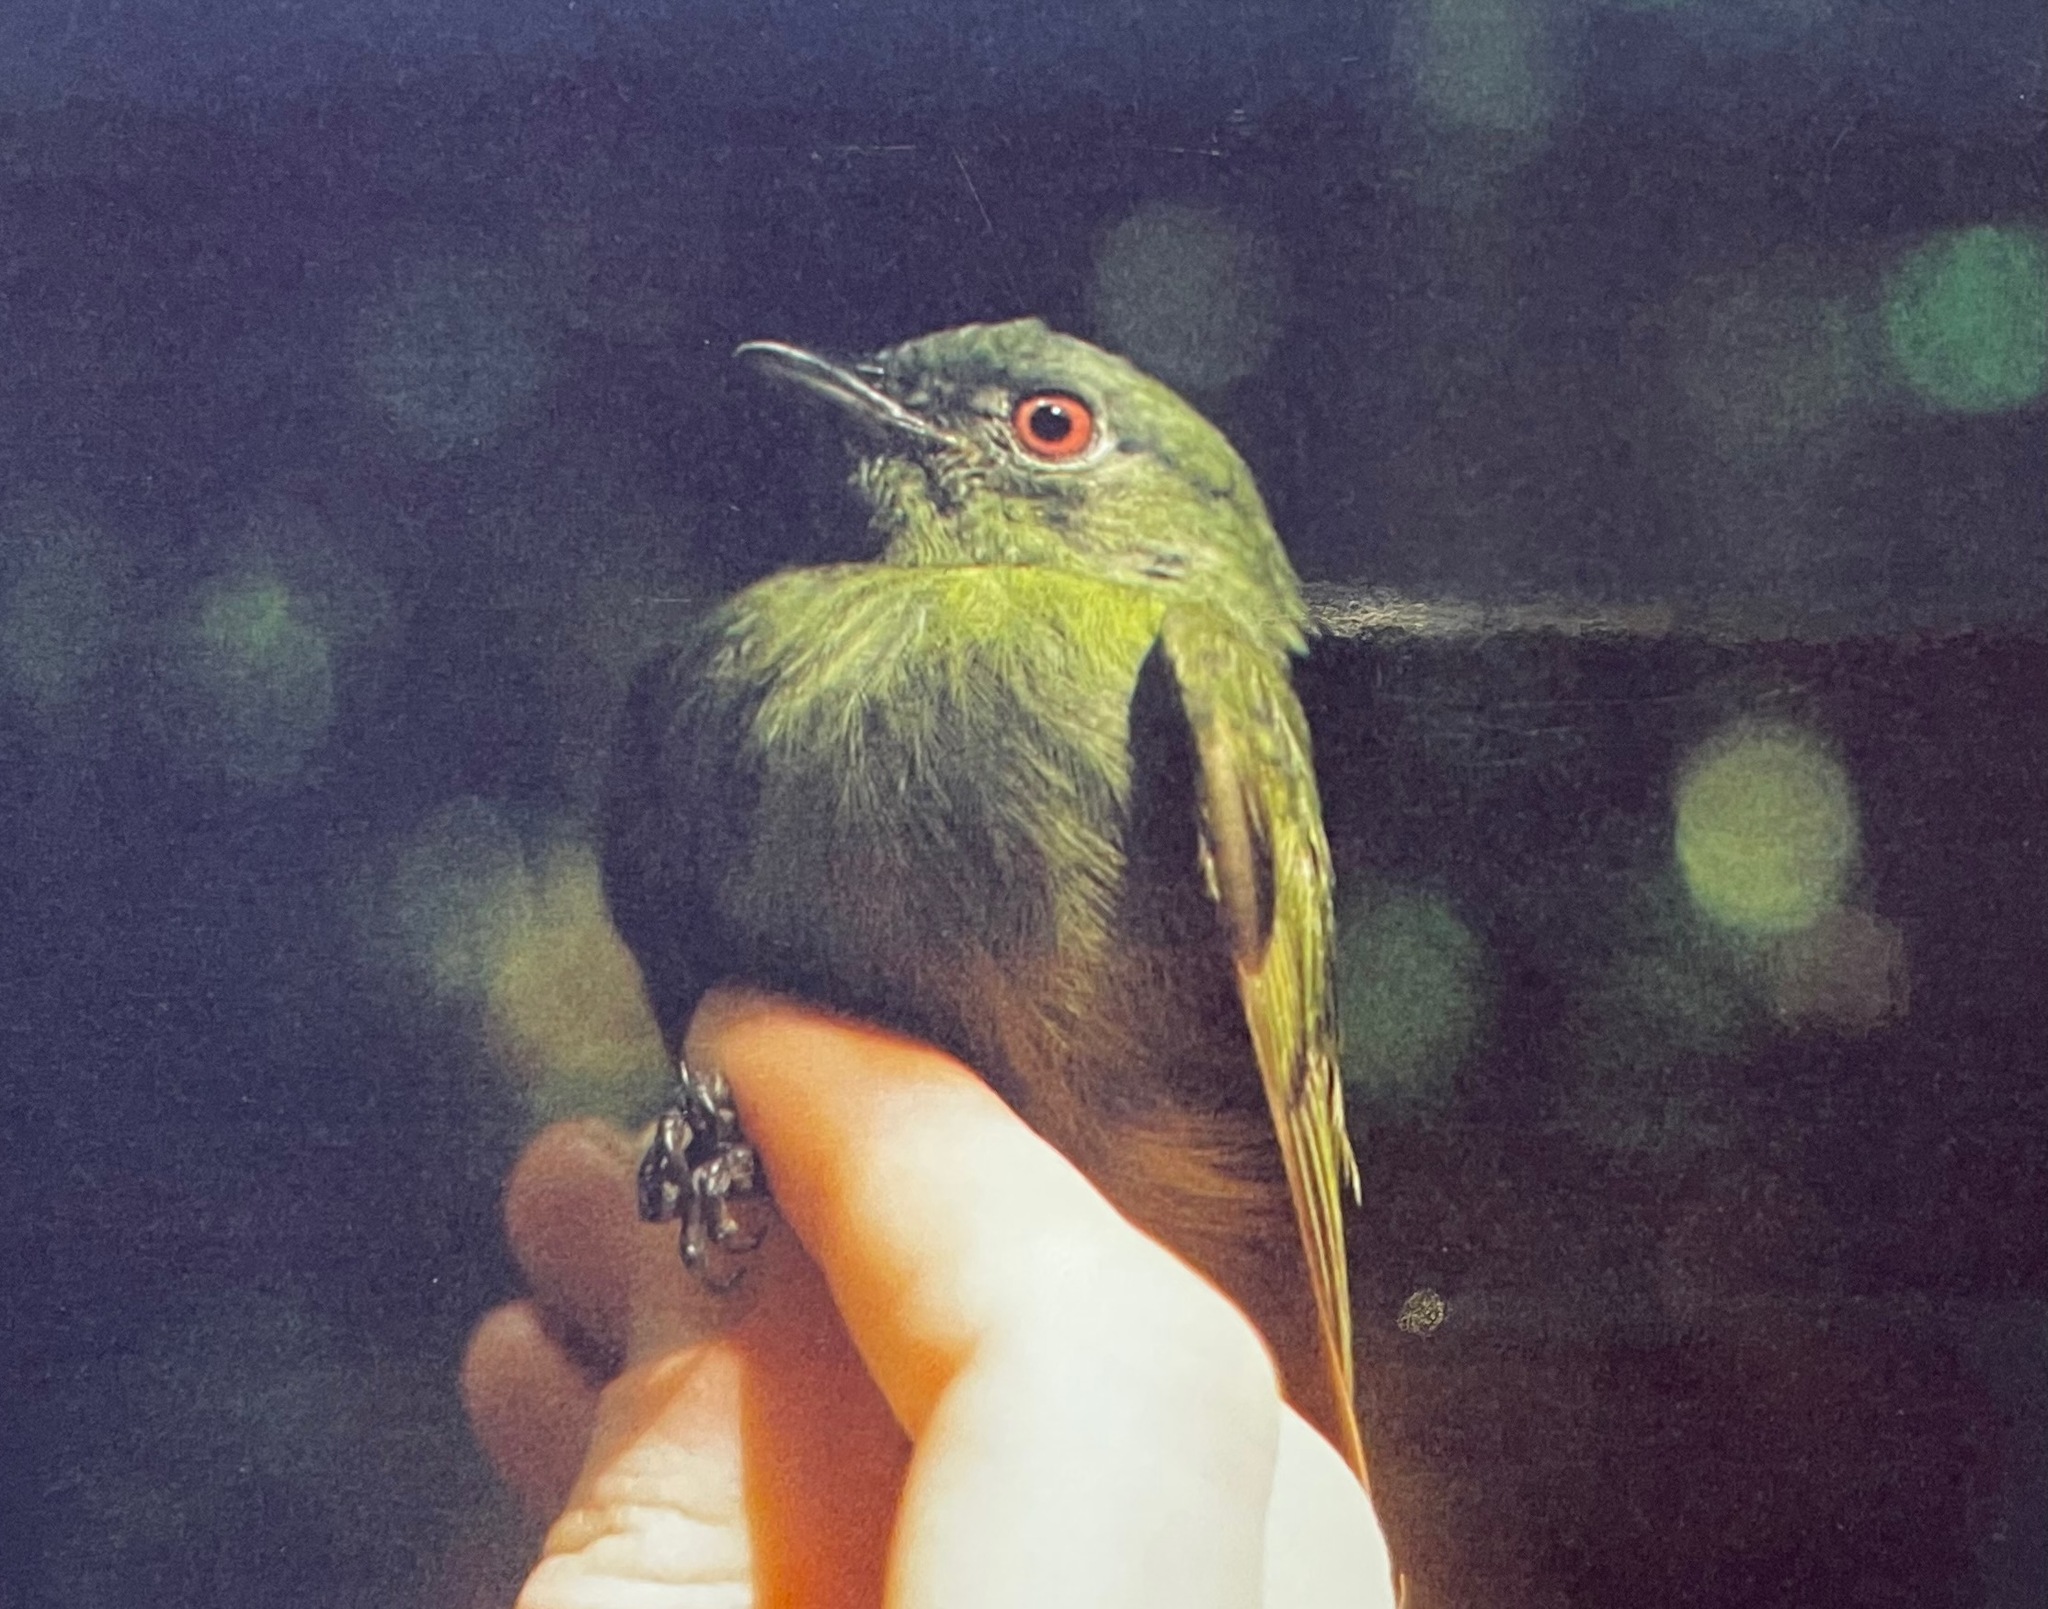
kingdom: Animalia
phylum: Chordata
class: Aves
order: Passeriformes
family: Pipridae
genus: Pipra
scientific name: Pipra pipra
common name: White-crowned manakin
